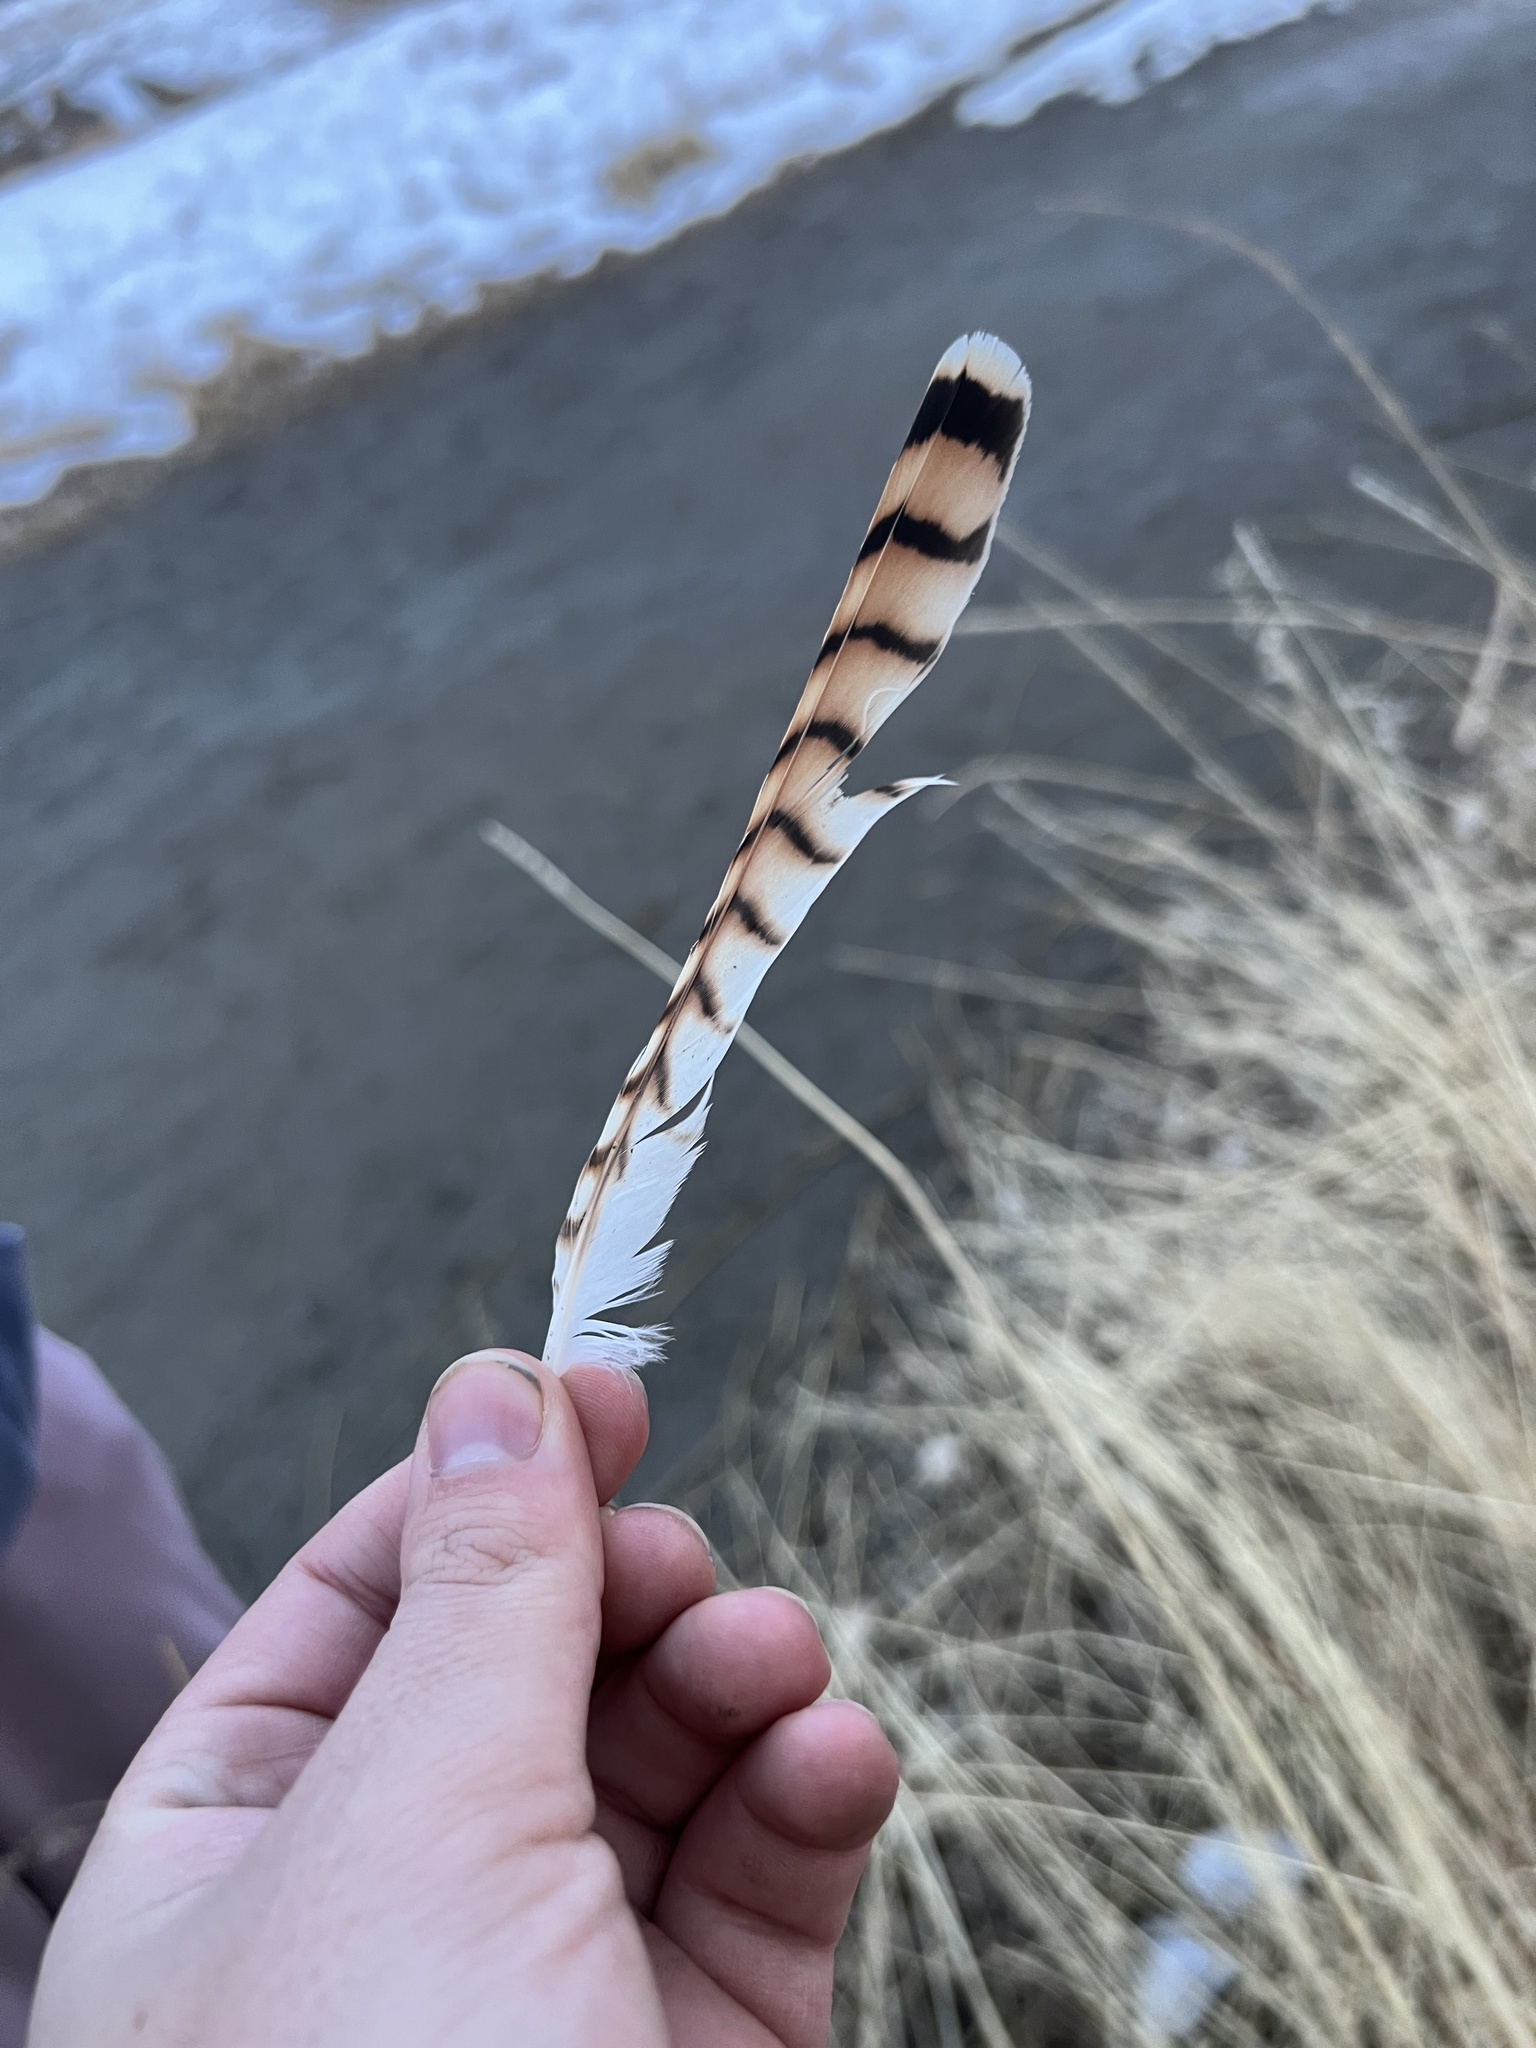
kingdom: Animalia
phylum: Chordata
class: Aves
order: Falconiformes
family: Falconidae
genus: Falco
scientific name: Falco sparverius
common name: American kestrel
